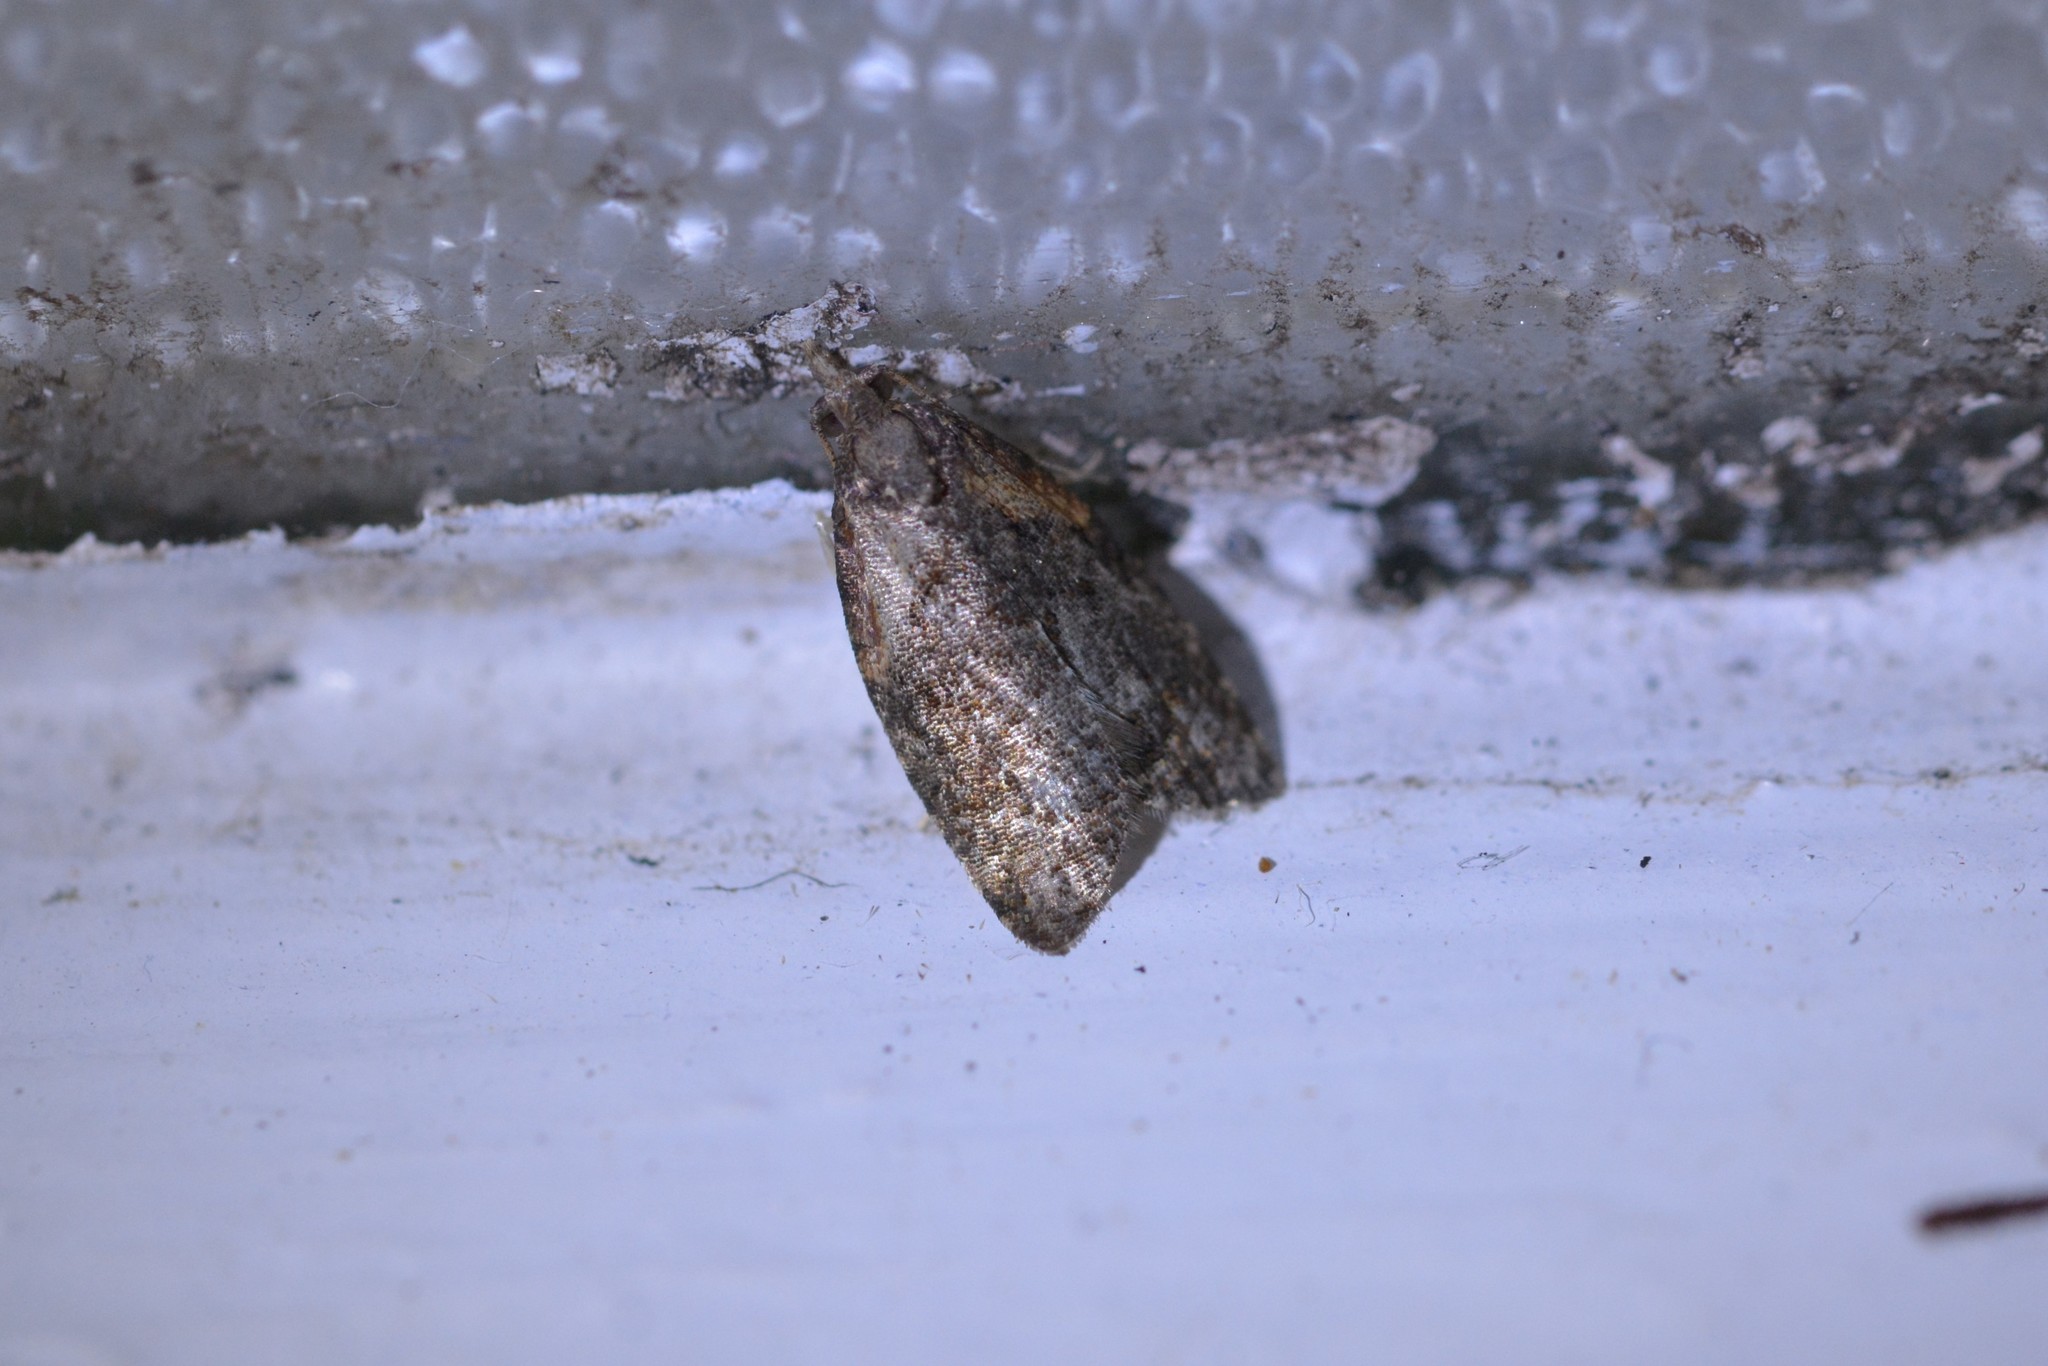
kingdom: Animalia
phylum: Arthropoda
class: Insecta
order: Lepidoptera
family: Tortricidae
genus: Capua
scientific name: Capua intractana
